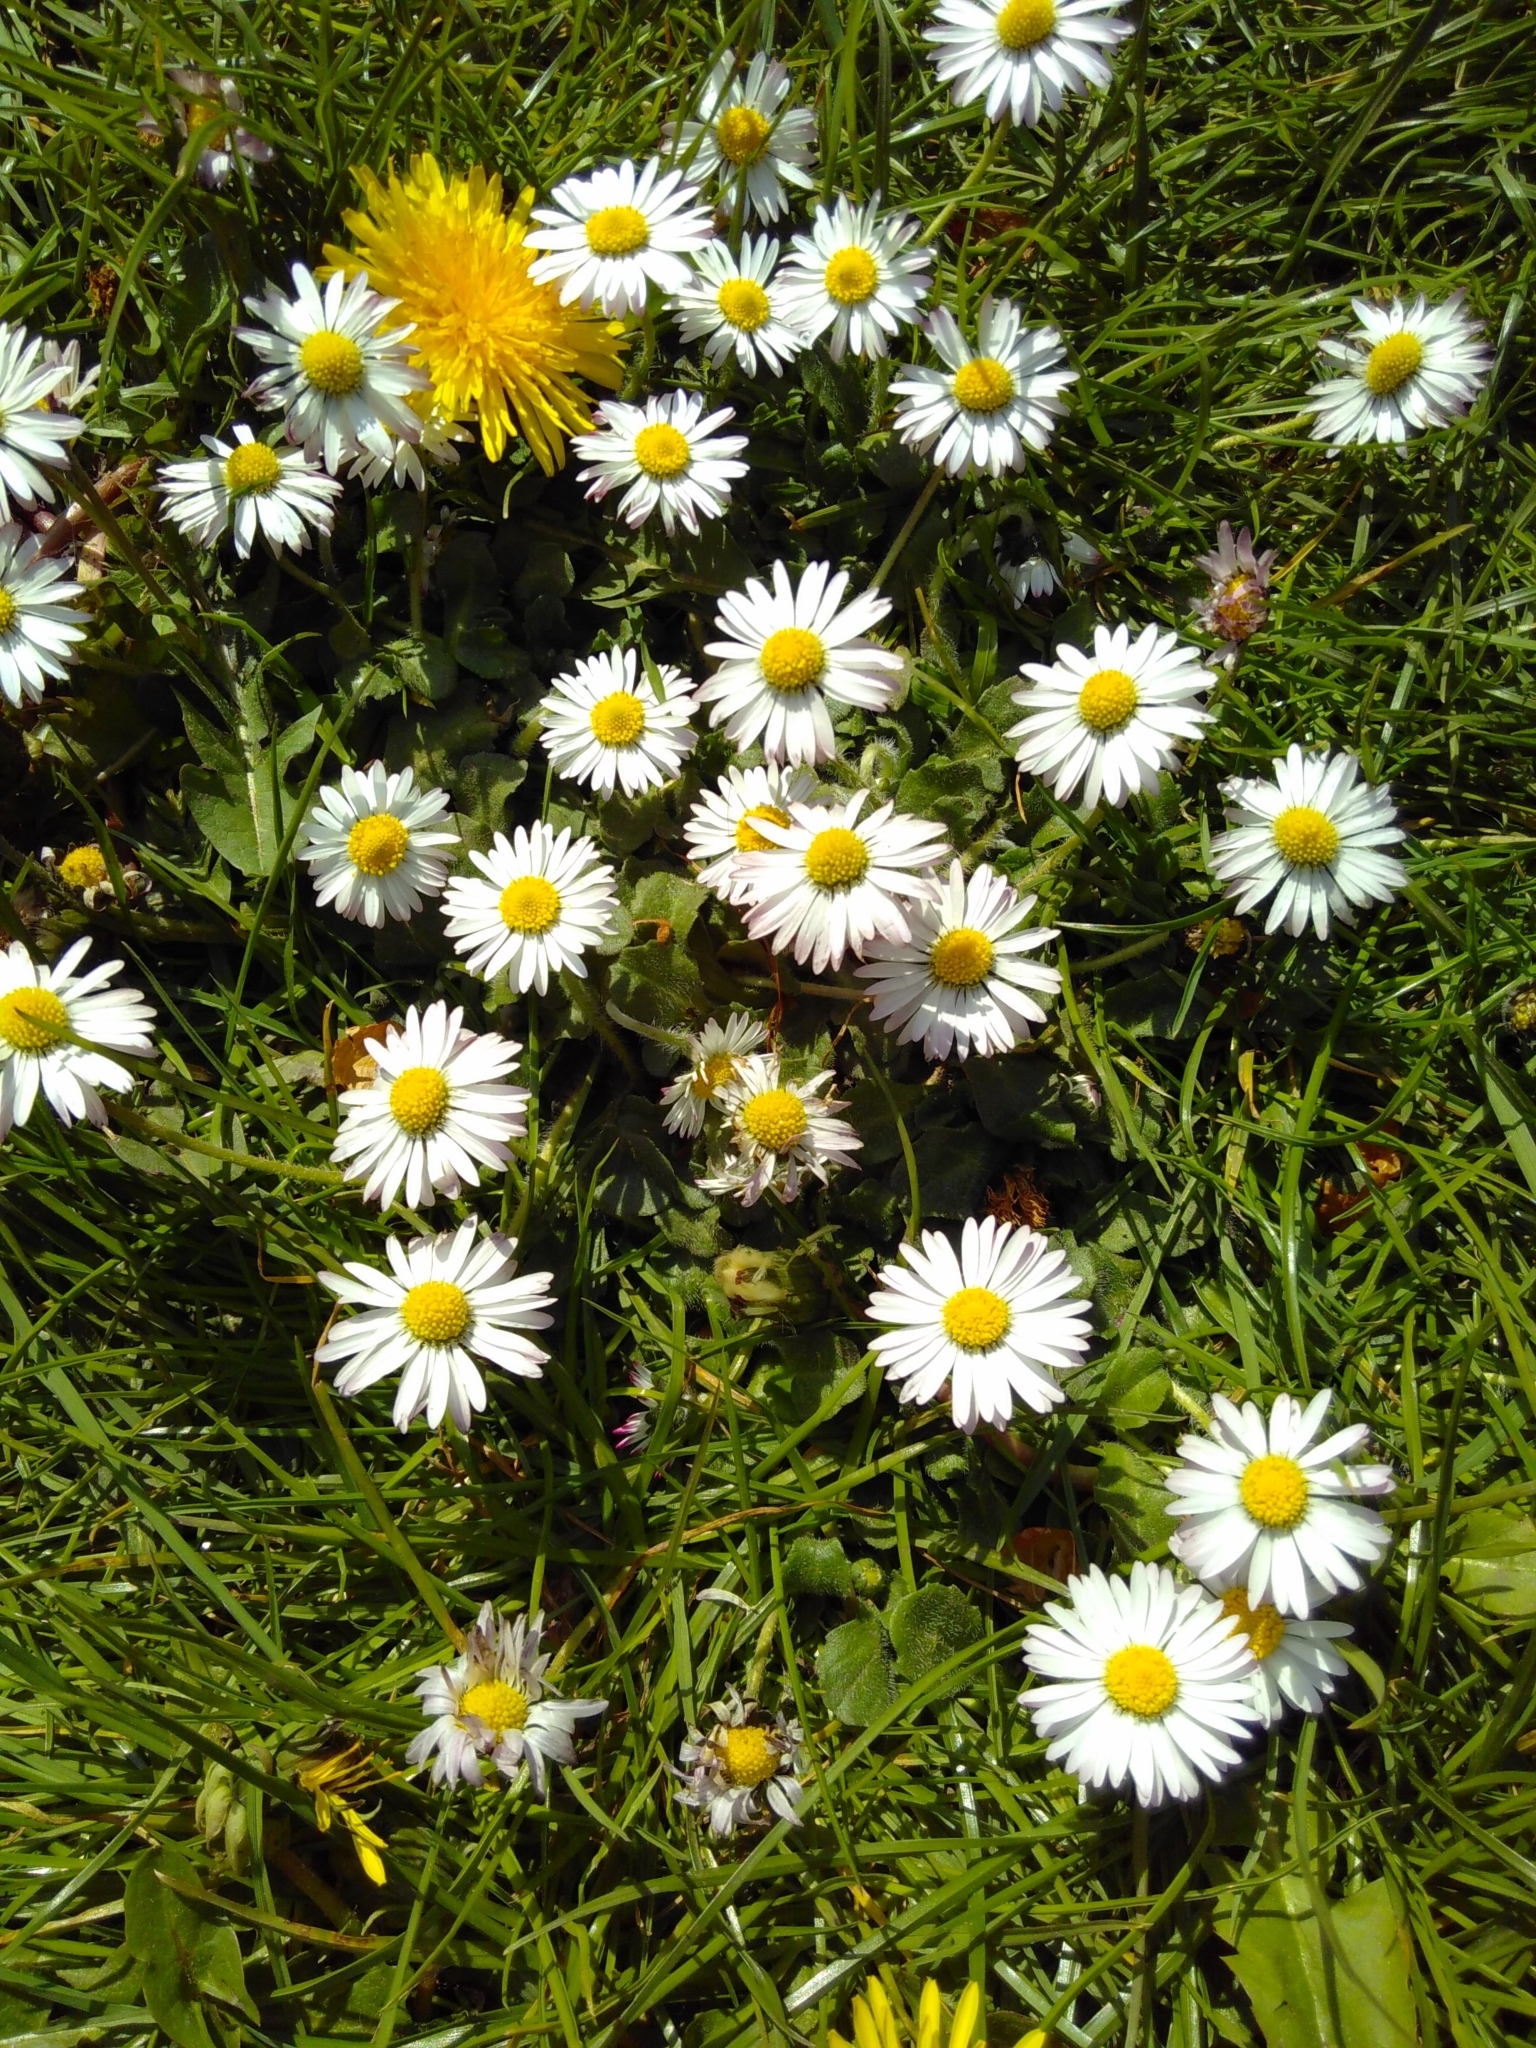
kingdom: Plantae
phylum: Tracheophyta
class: Magnoliopsida
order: Asterales
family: Asteraceae
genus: Bellis
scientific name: Bellis perennis
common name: Lawndaisy
